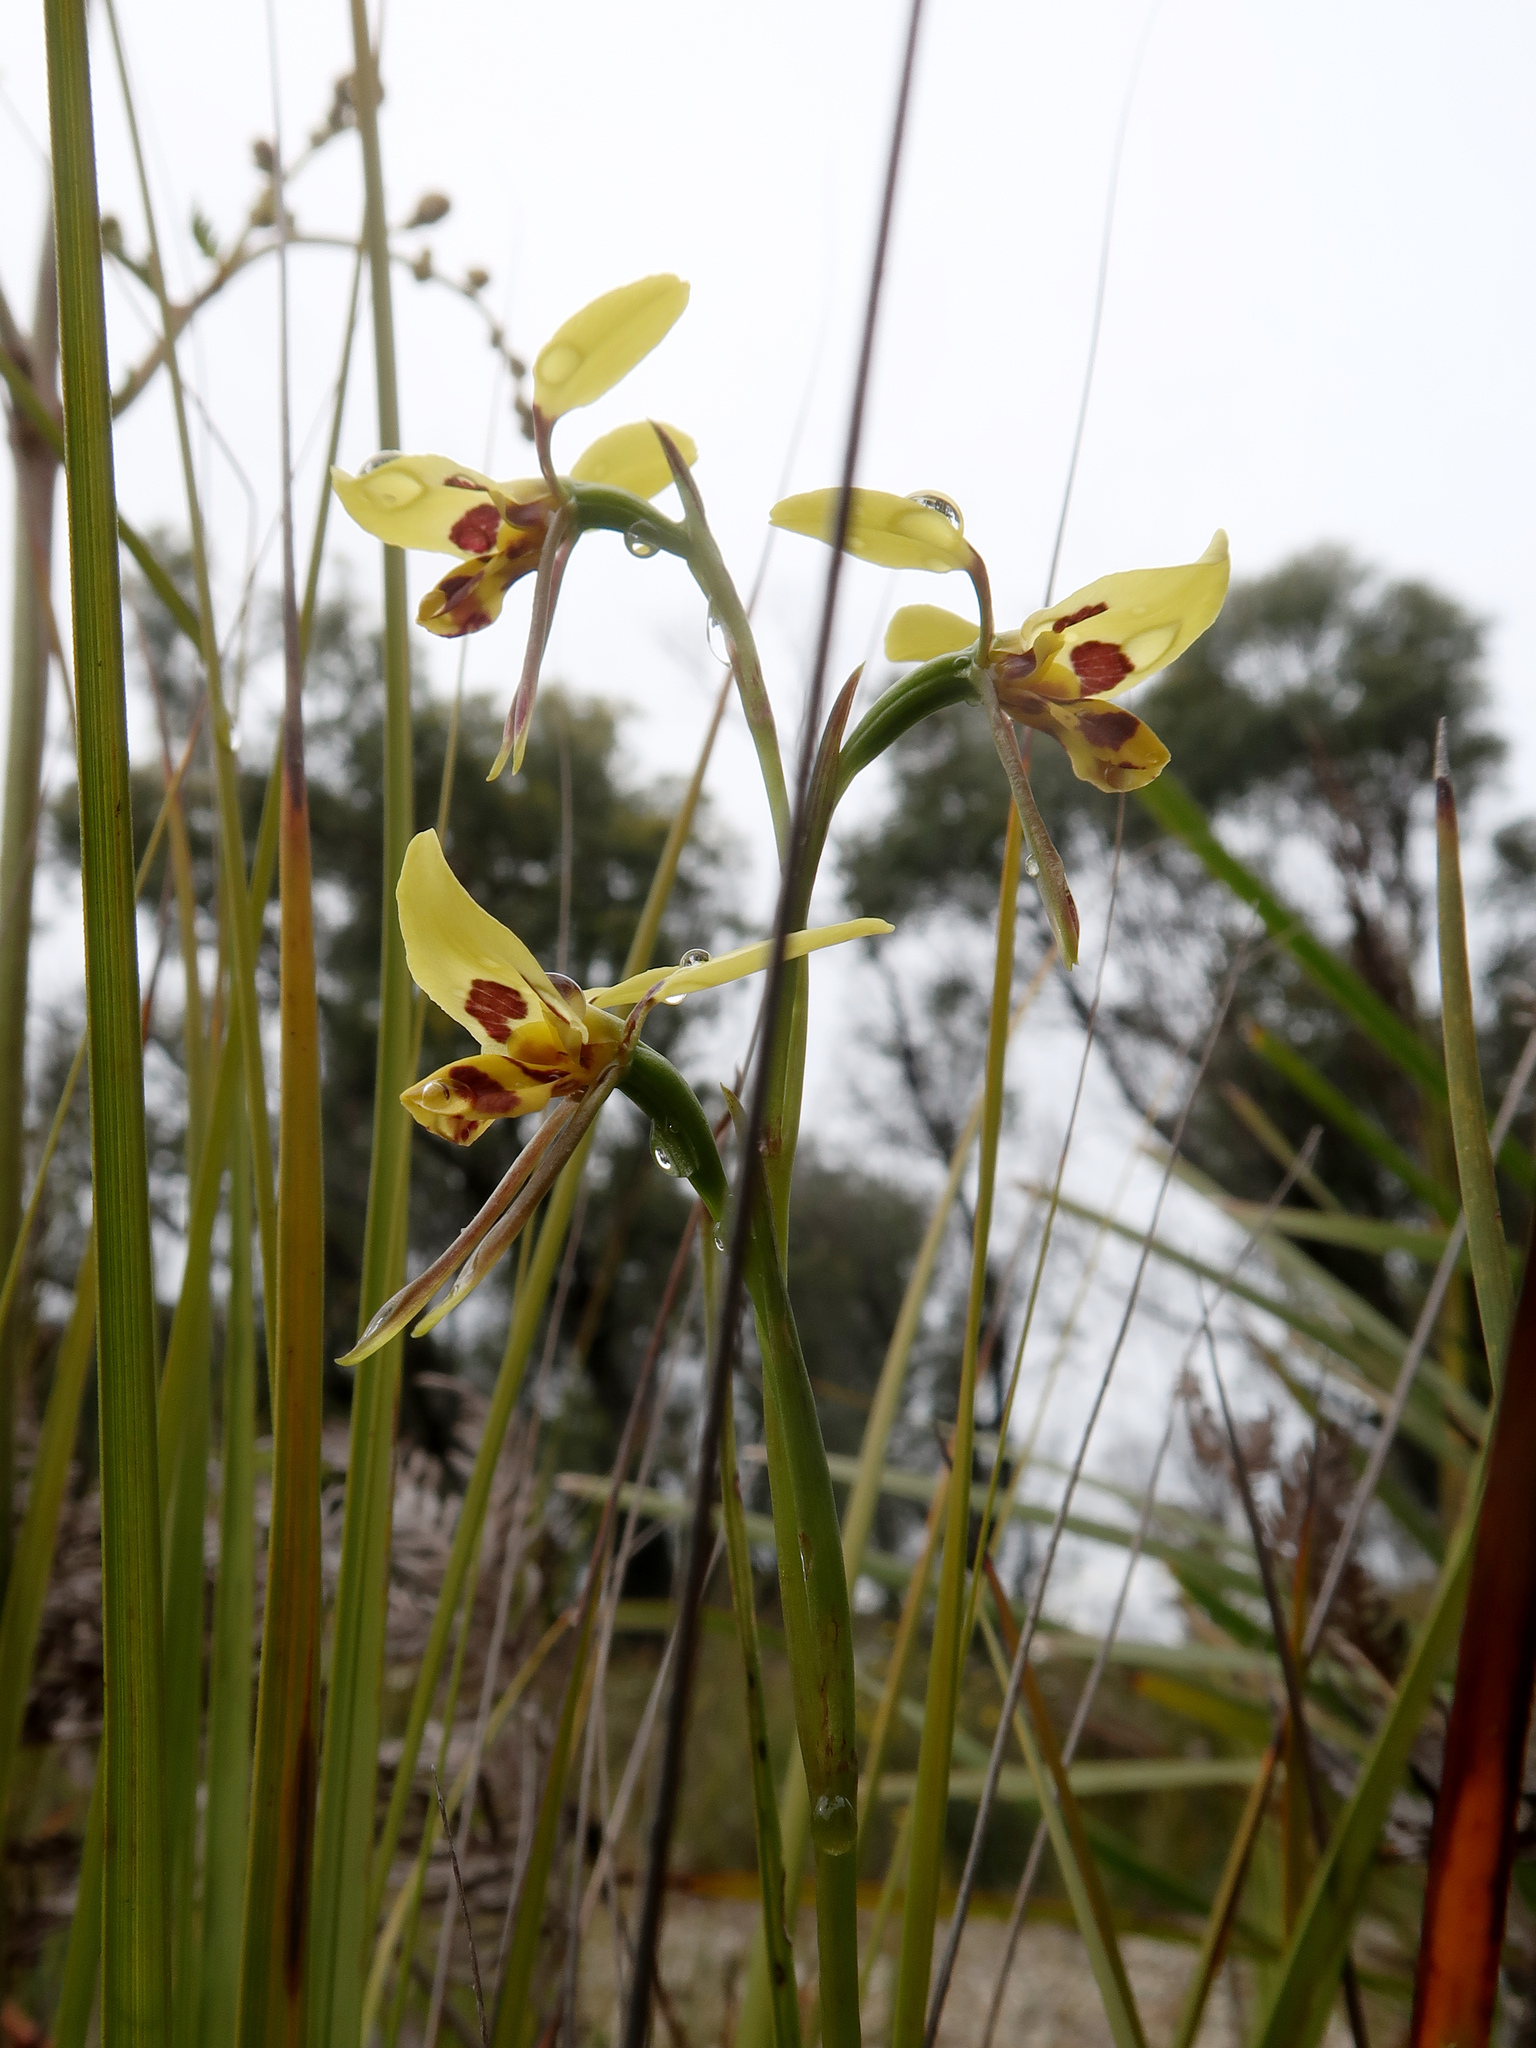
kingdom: Plantae
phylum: Tracheophyta
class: Liliopsida
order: Asparagales
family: Orchidaceae
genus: Diuris
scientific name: Diuris sulphurea
